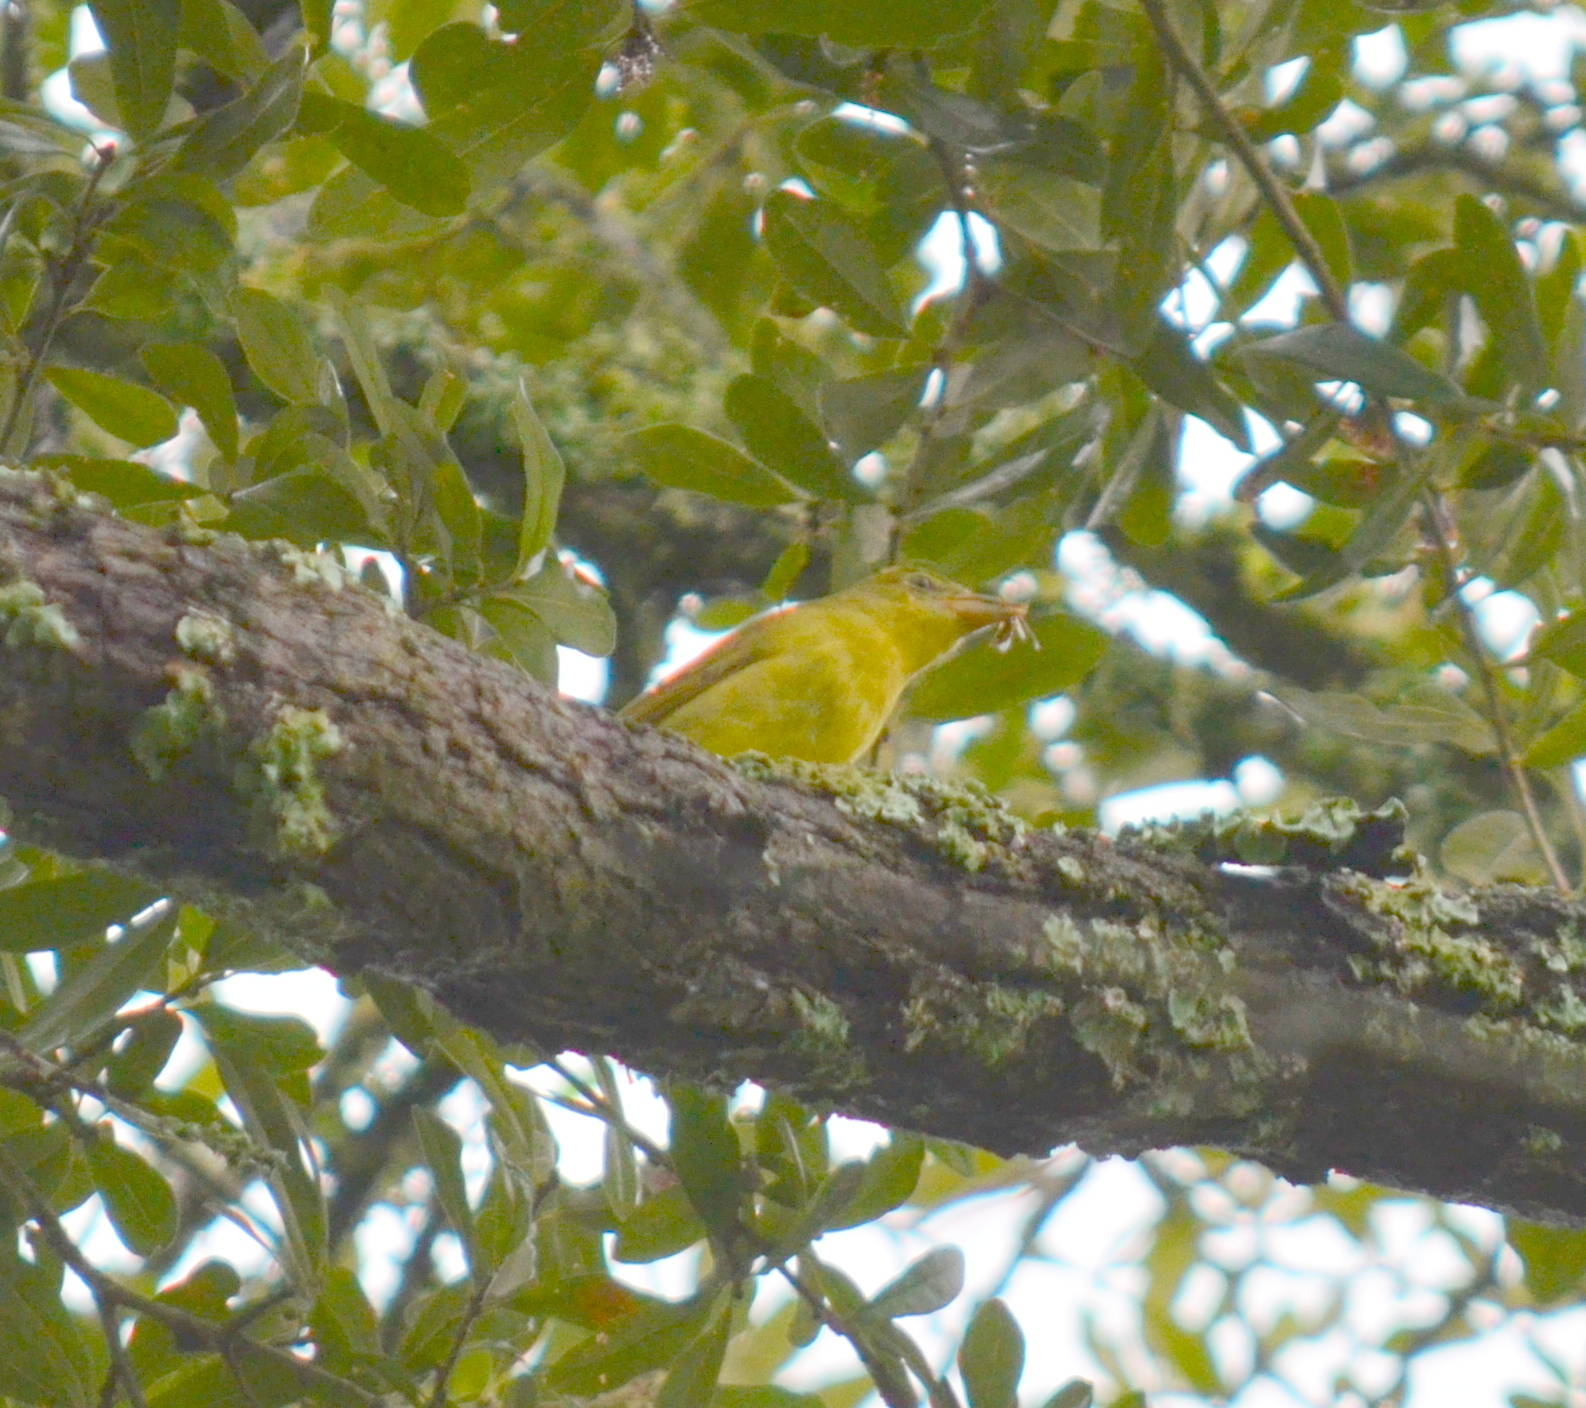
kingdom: Animalia
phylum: Chordata
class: Aves
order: Passeriformes
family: Cardinalidae
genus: Piranga
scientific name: Piranga rubra
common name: Summer tanager
